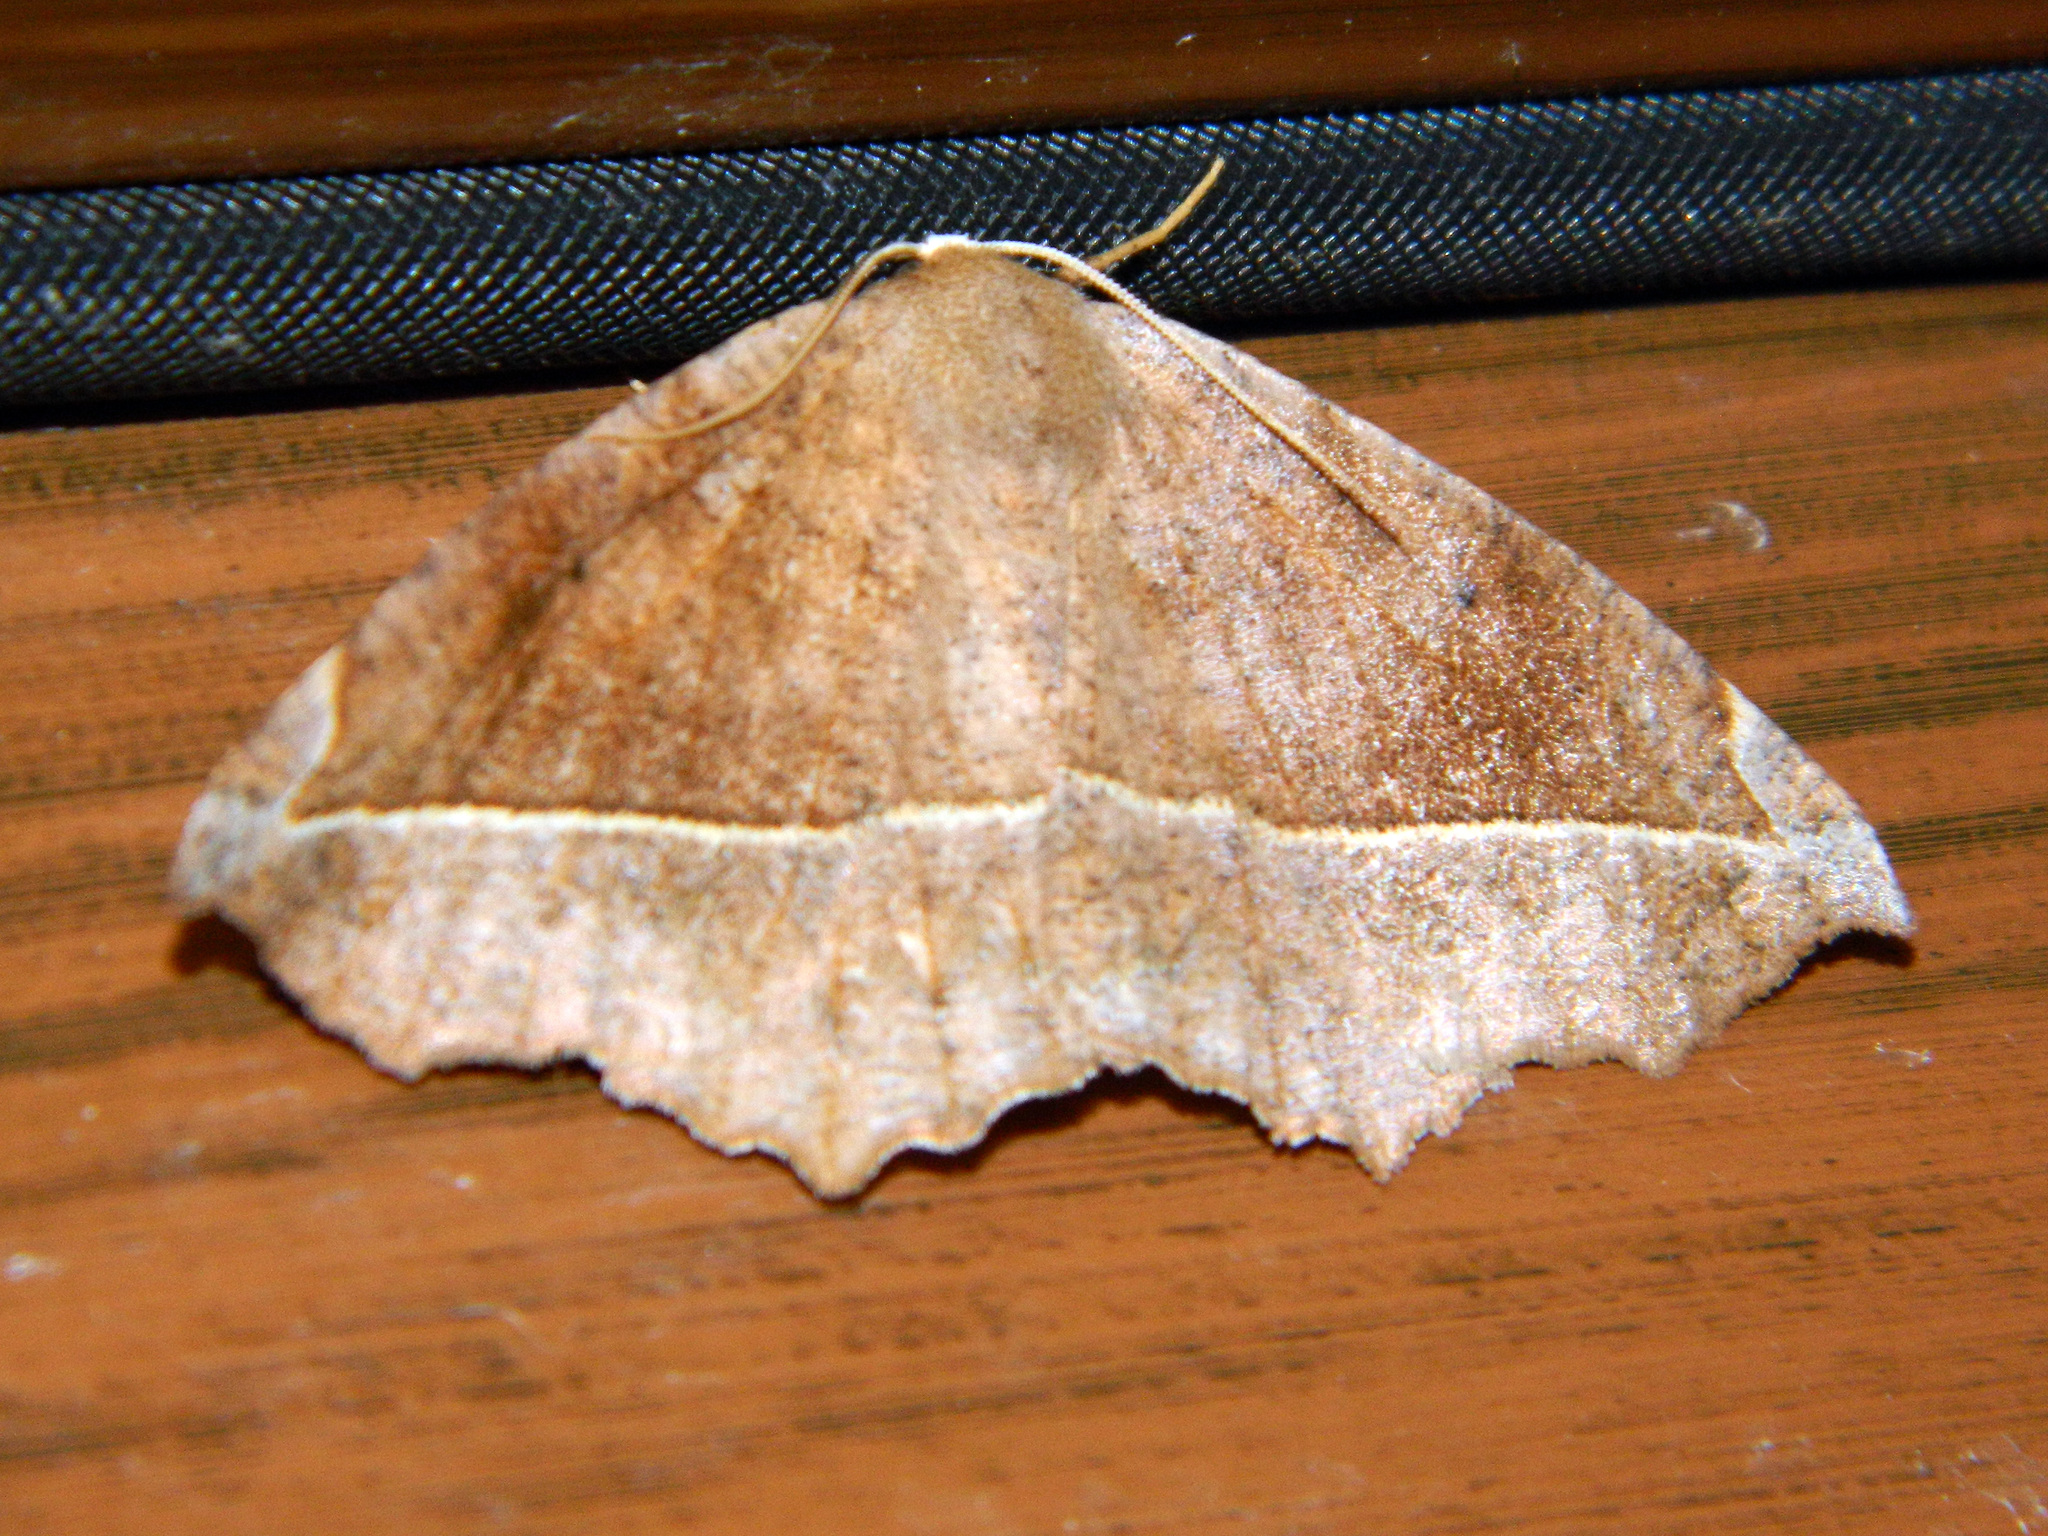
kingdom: Animalia
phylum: Arthropoda
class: Insecta
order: Lepidoptera
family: Geometridae
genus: Eutrapela
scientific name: Eutrapela clemataria
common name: Curved-toothed geometer
